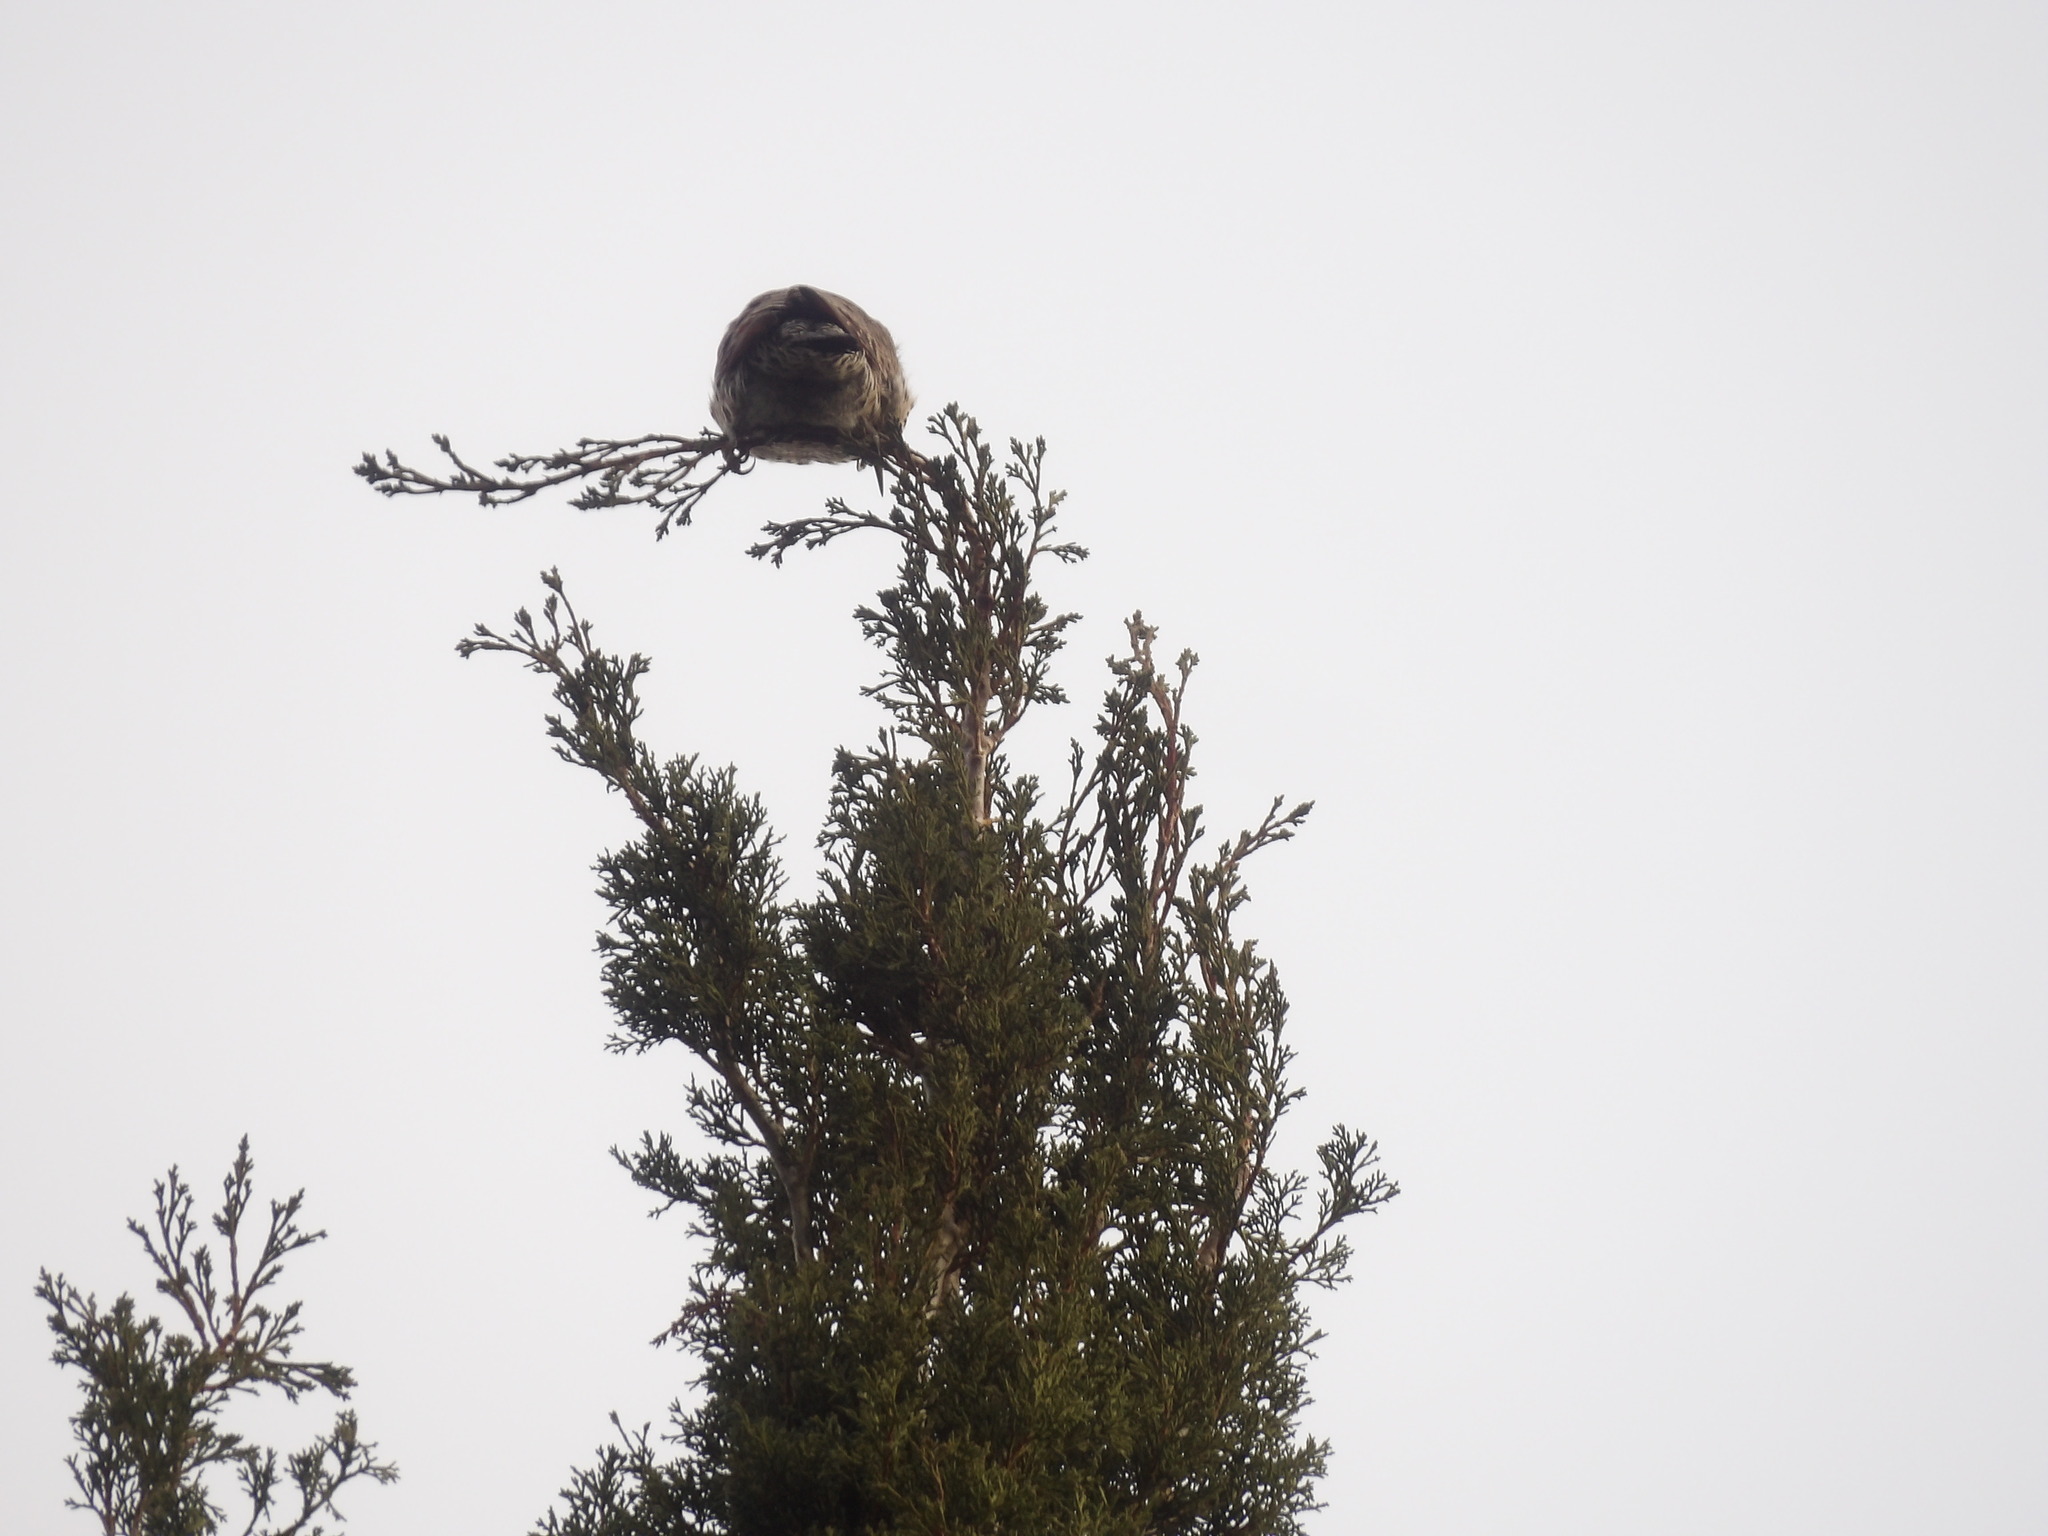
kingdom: Animalia
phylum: Chordata
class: Aves
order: Piciformes
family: Picidae
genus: Colaptes
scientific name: Colaptes auratus
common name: Northern flicker
